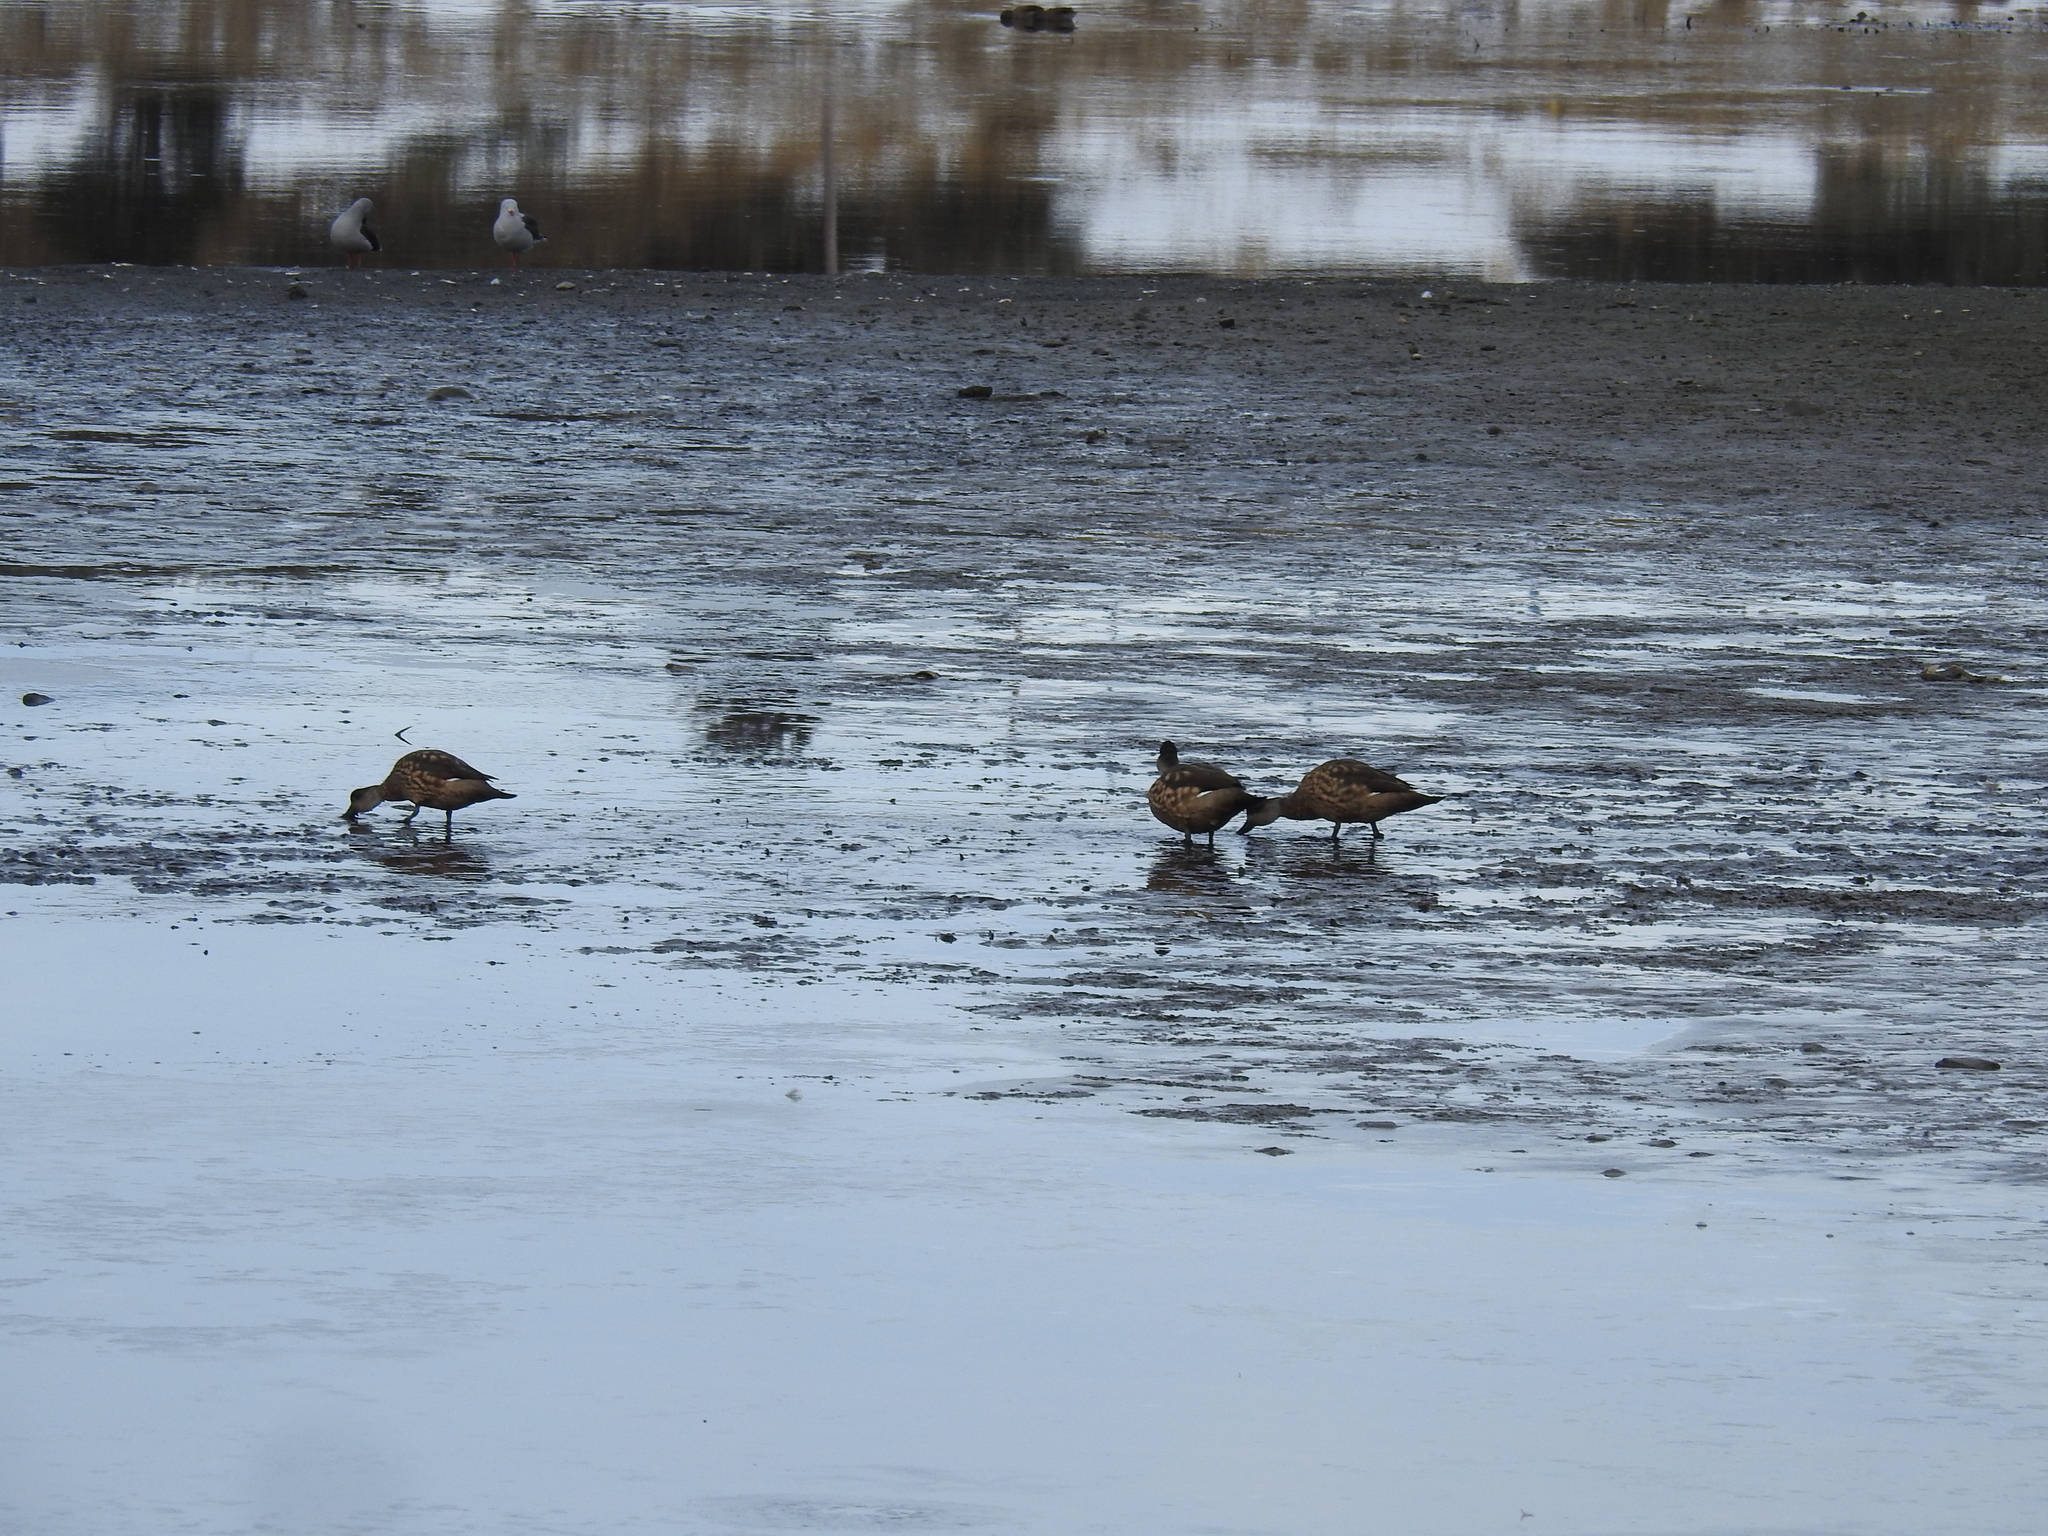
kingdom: Animalia
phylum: Chordata
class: Aves
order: Anseriformes
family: Anatidae
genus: Lophonetta
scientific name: Lophonetta specularioides
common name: Crested duck
